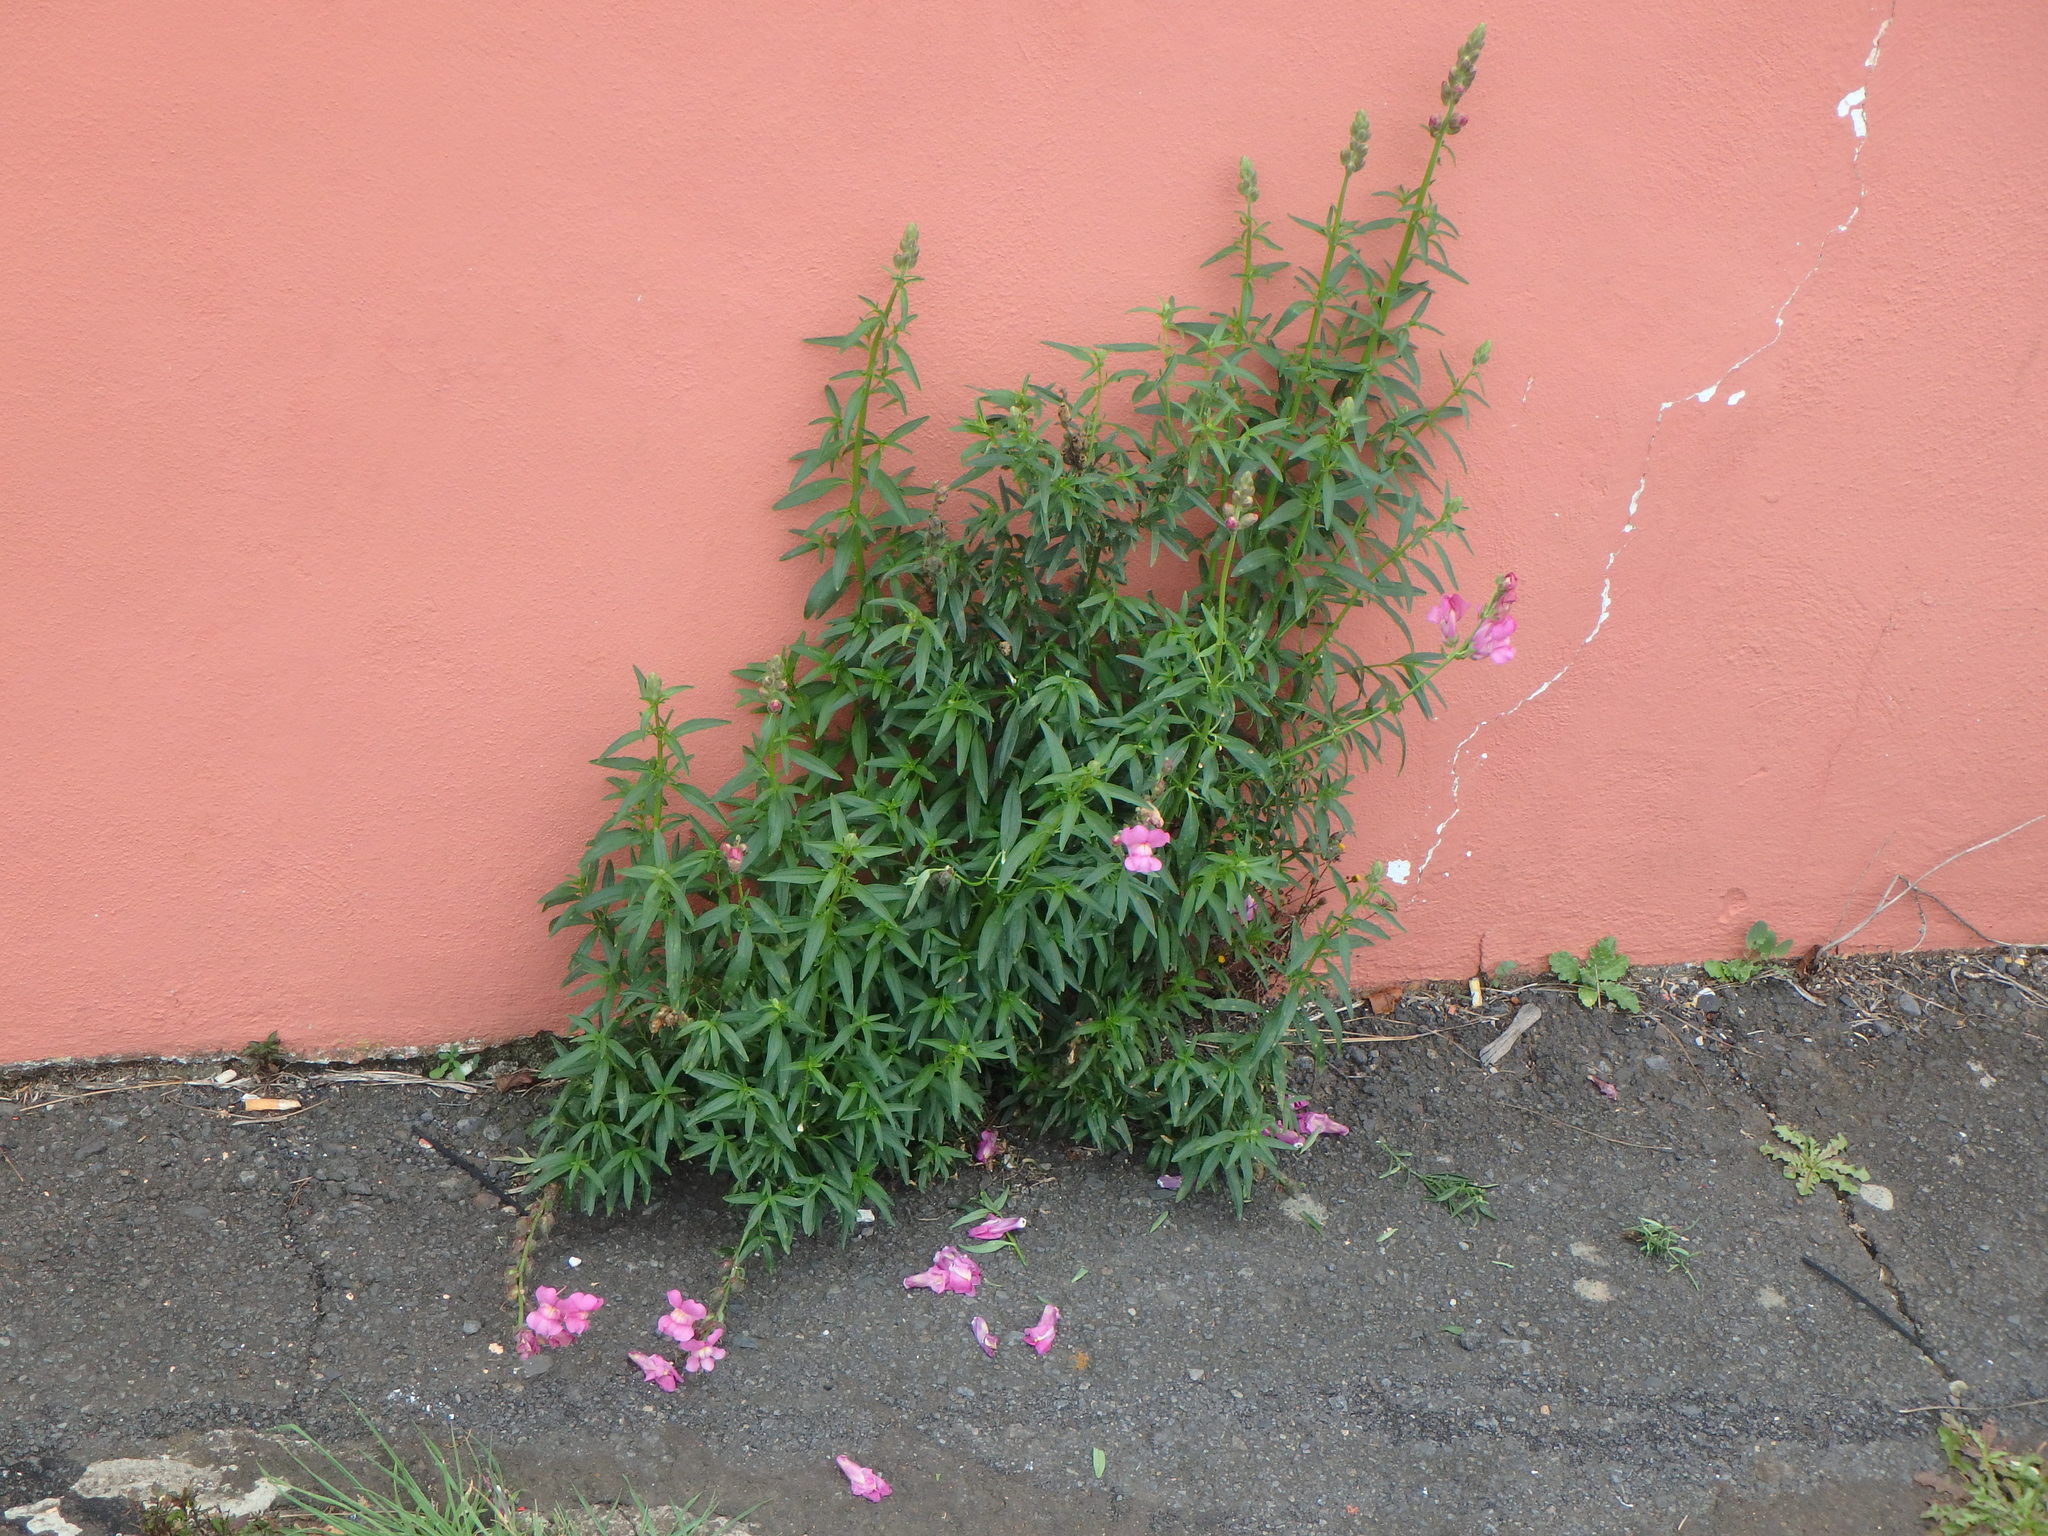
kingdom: Plantae
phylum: Tracheophyta
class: Magnoliopsida
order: Lamiales
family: Plantaginaceae
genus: Antirrhinum
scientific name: Antirrhinum majus
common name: Snapdragon
